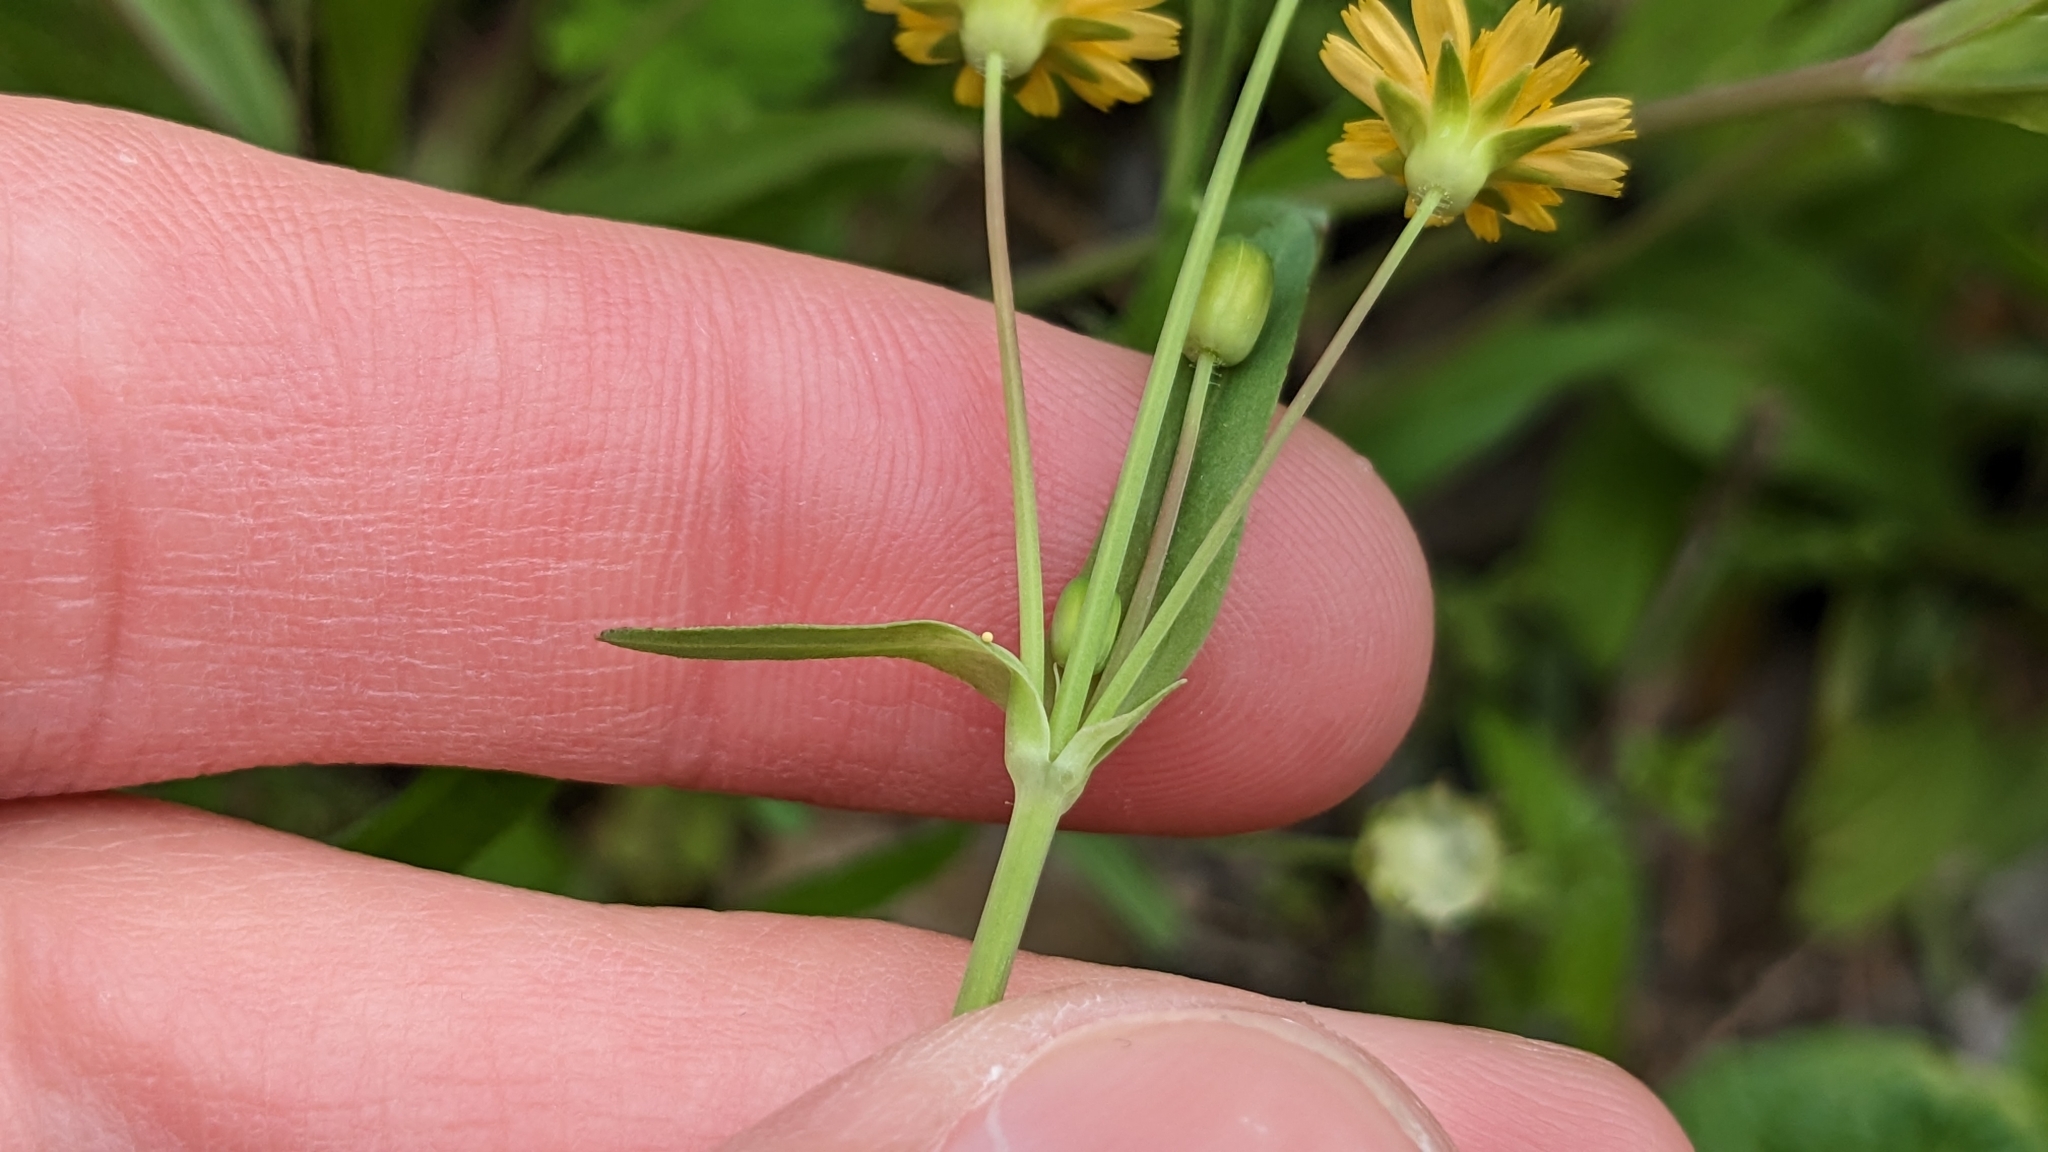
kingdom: Plantae
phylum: Tracheophyta
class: Magnoliopsida
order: Asterales
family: Asteraceae
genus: Krigia
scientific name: Krigia cespitosa
